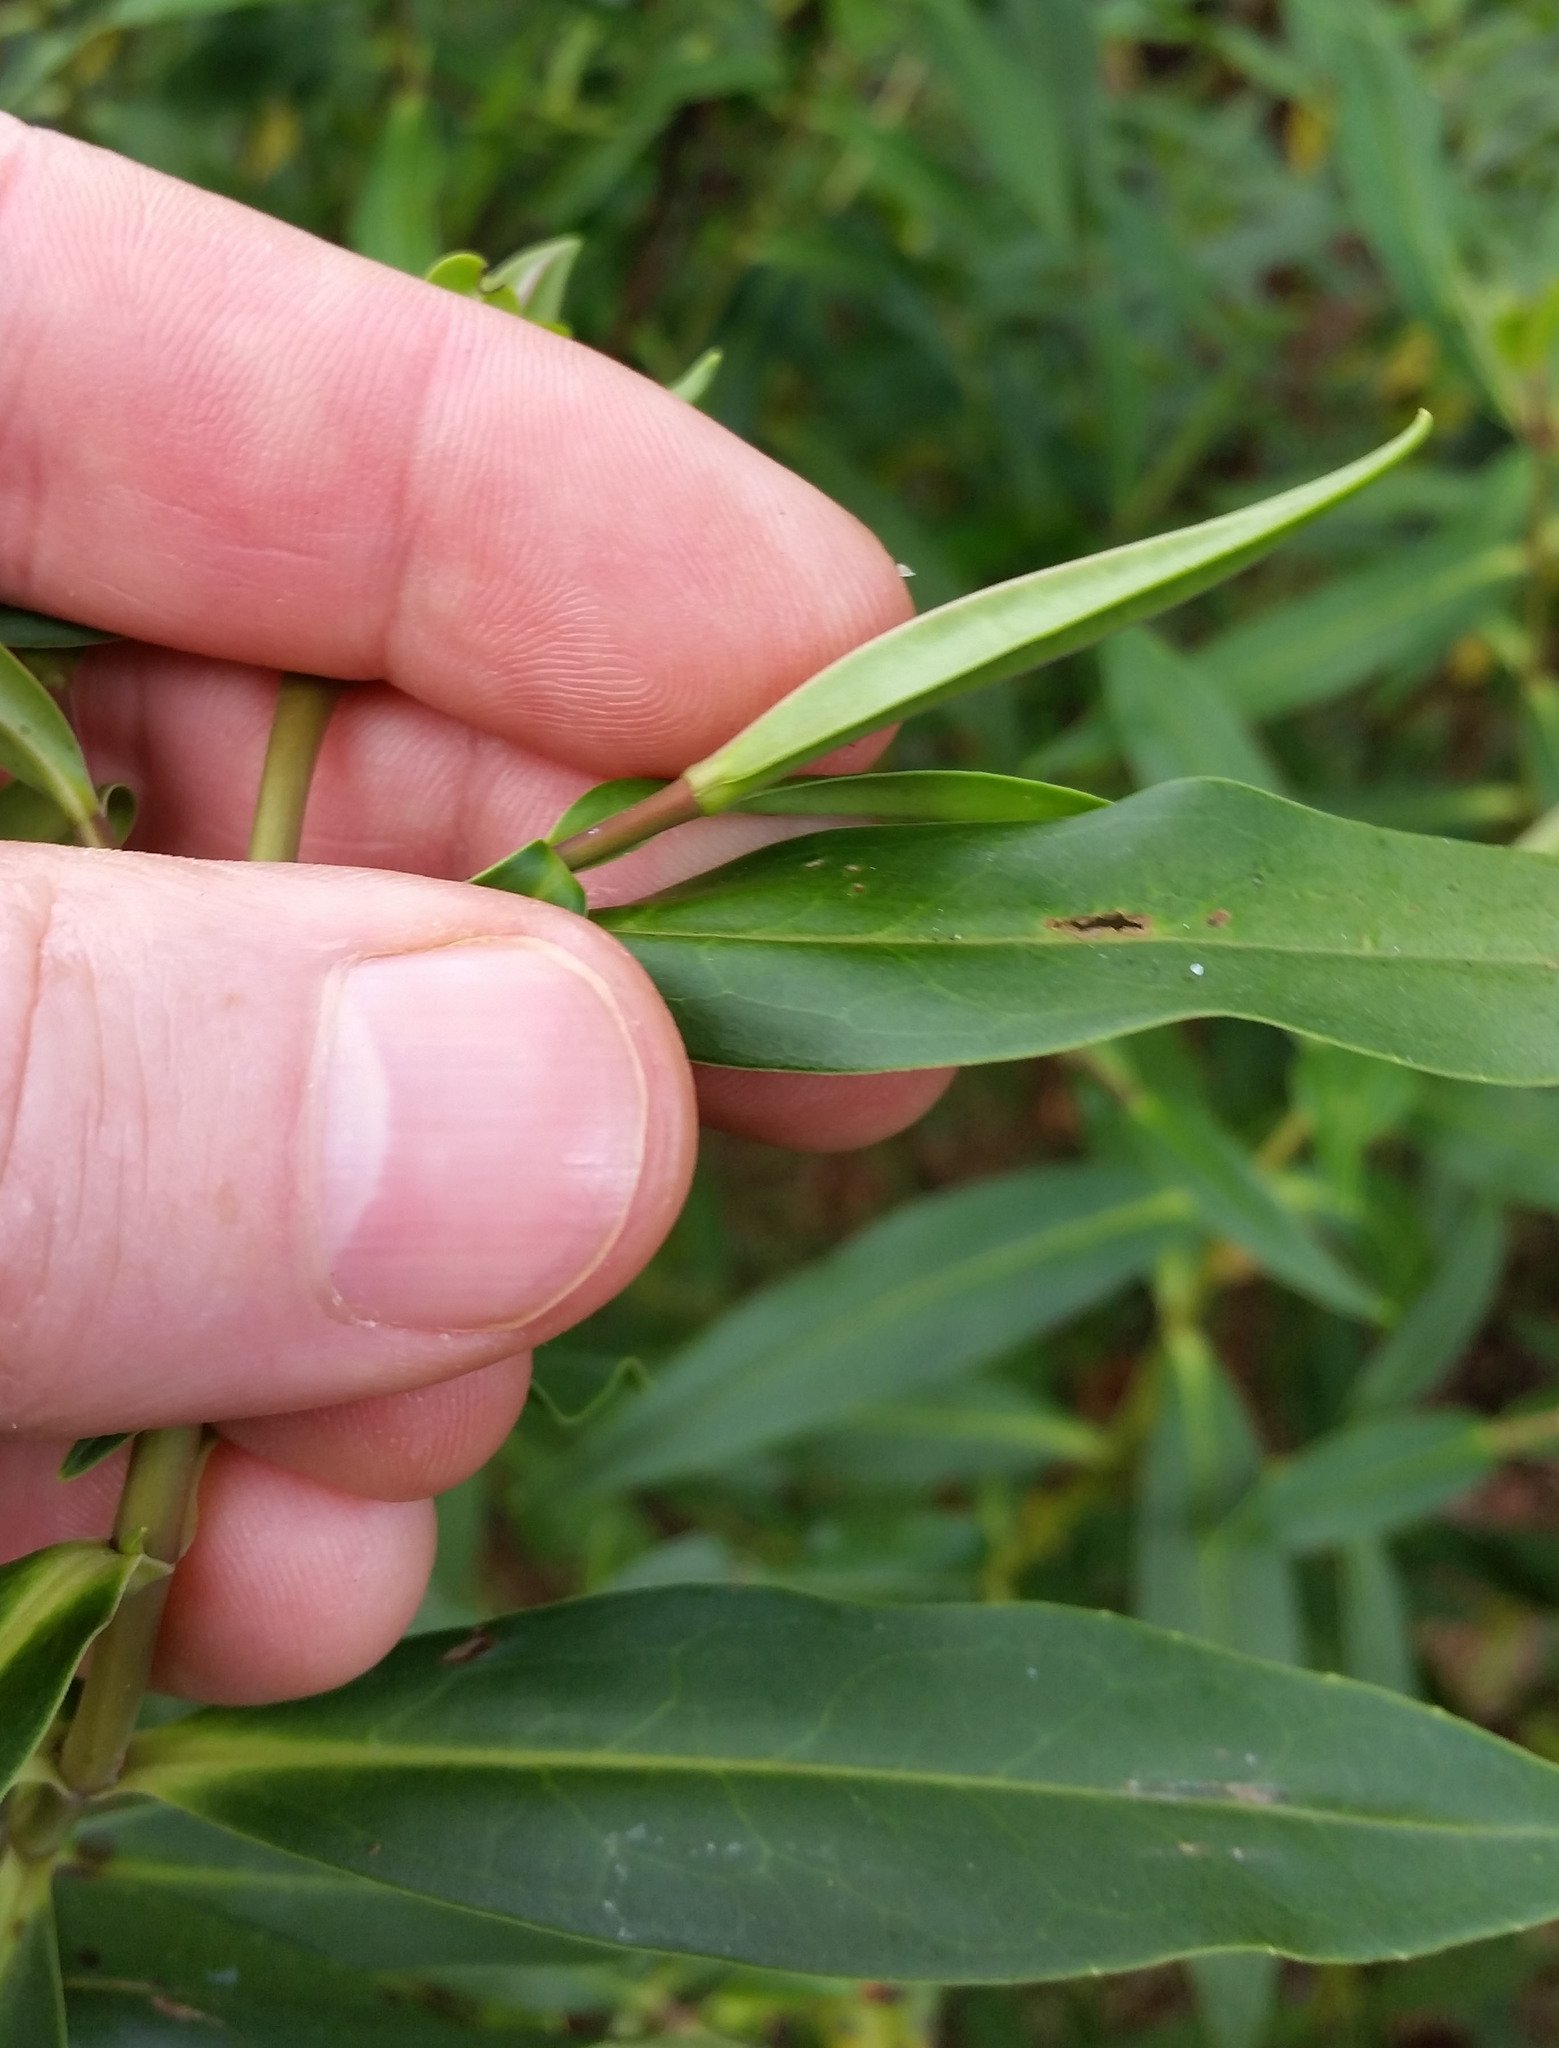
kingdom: Plantae
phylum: Tracheophyta
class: Magnoliopsida
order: Lamiales
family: Plantaginaceae
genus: Veronica
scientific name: Veronica stricta
